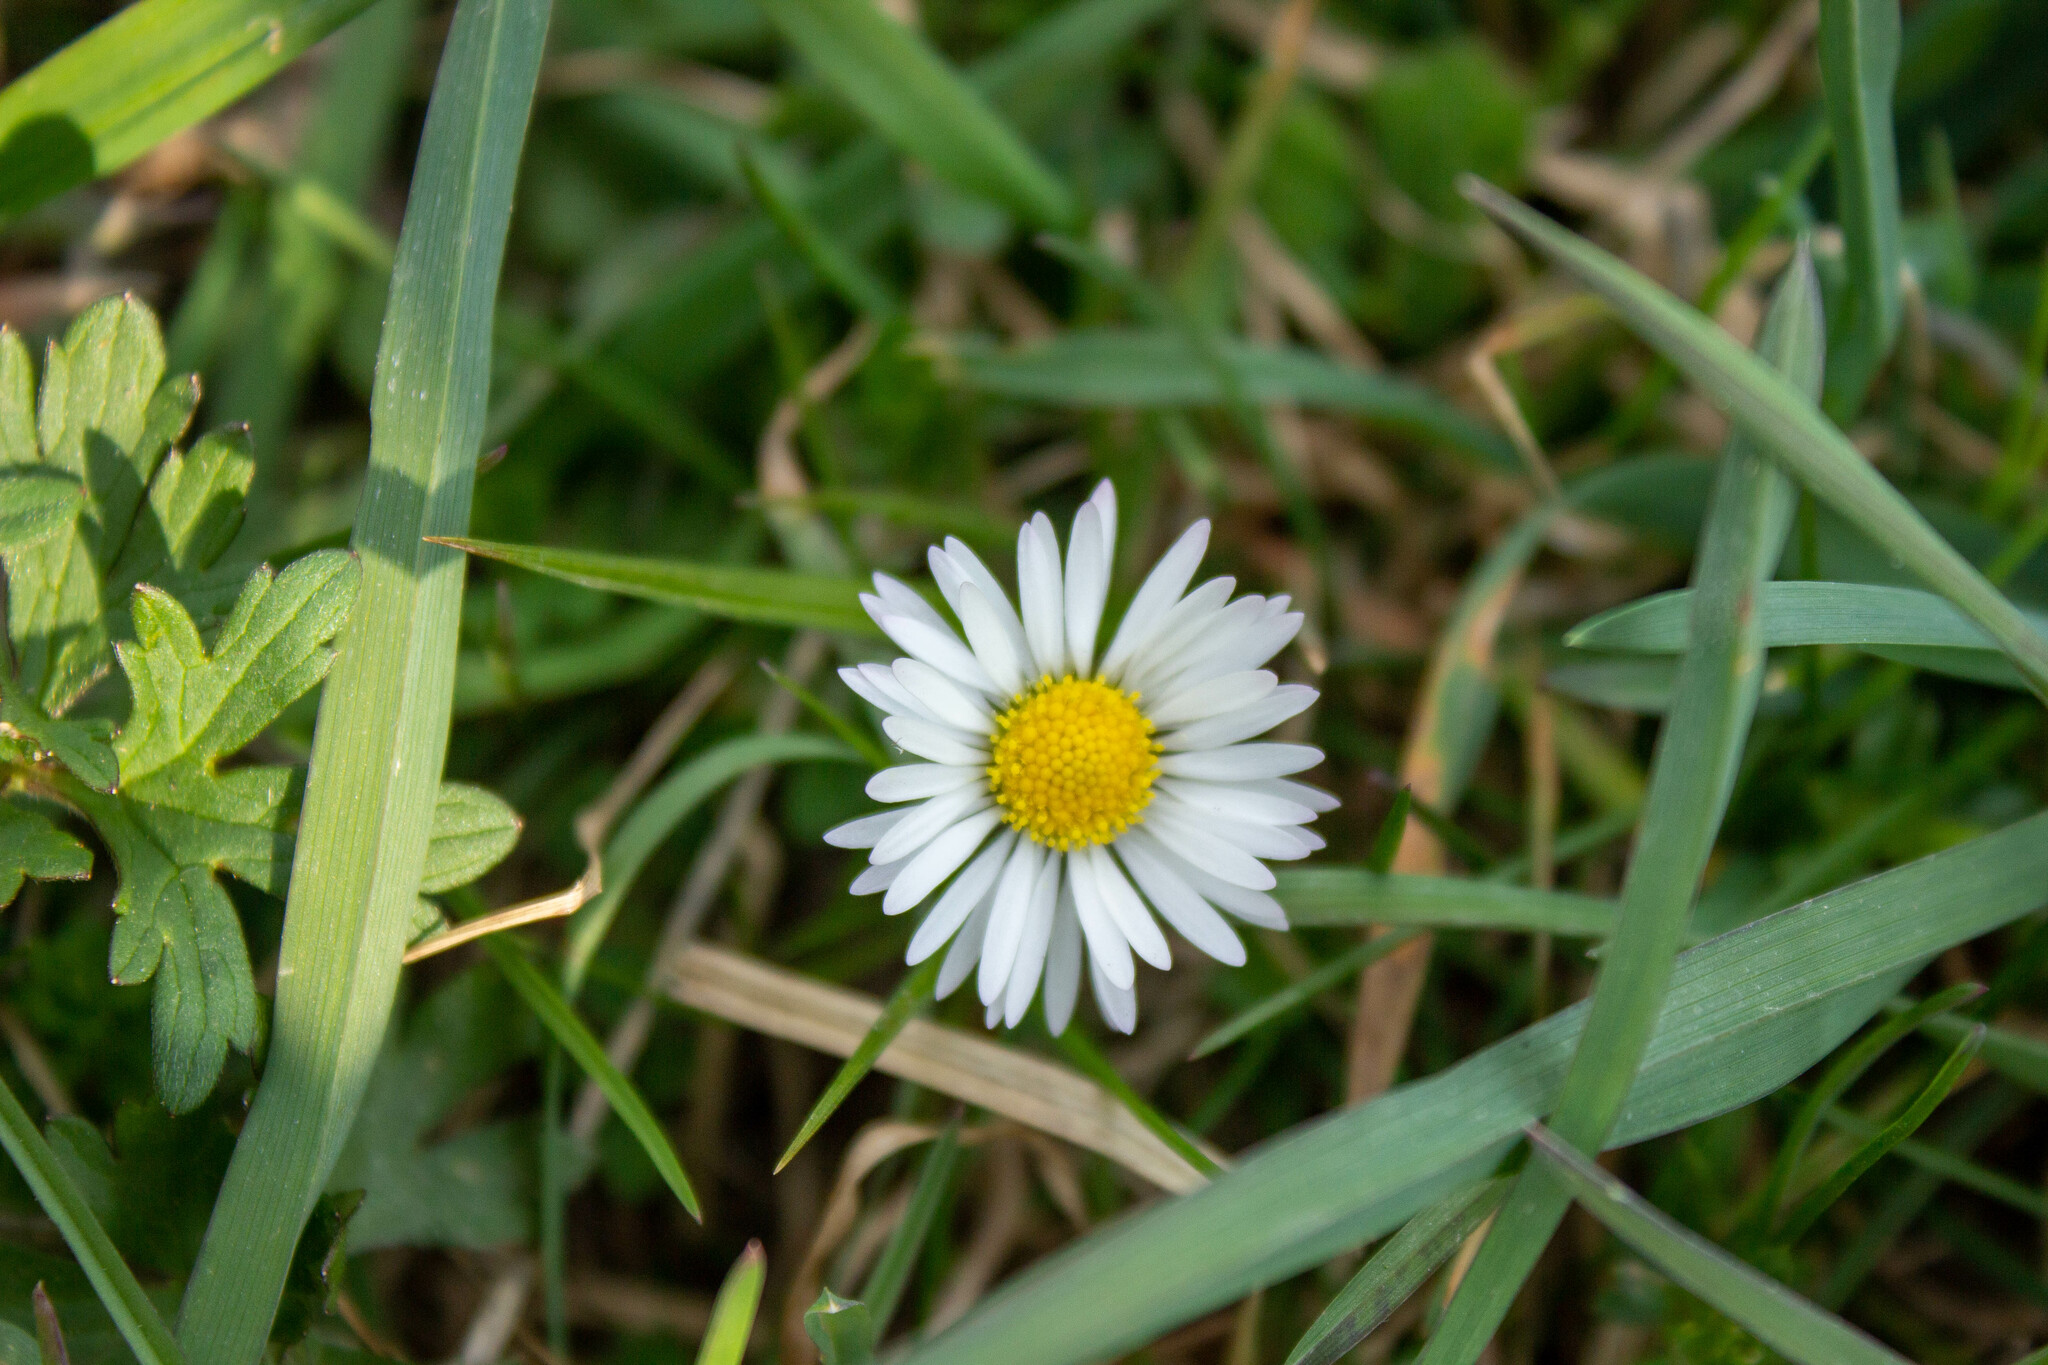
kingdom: Plantae
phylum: Tracheophyta
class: Magnoliopsida
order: Asterales
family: Asteraceae
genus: Bellis
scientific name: Bellis perennis
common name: Lawndaisy
